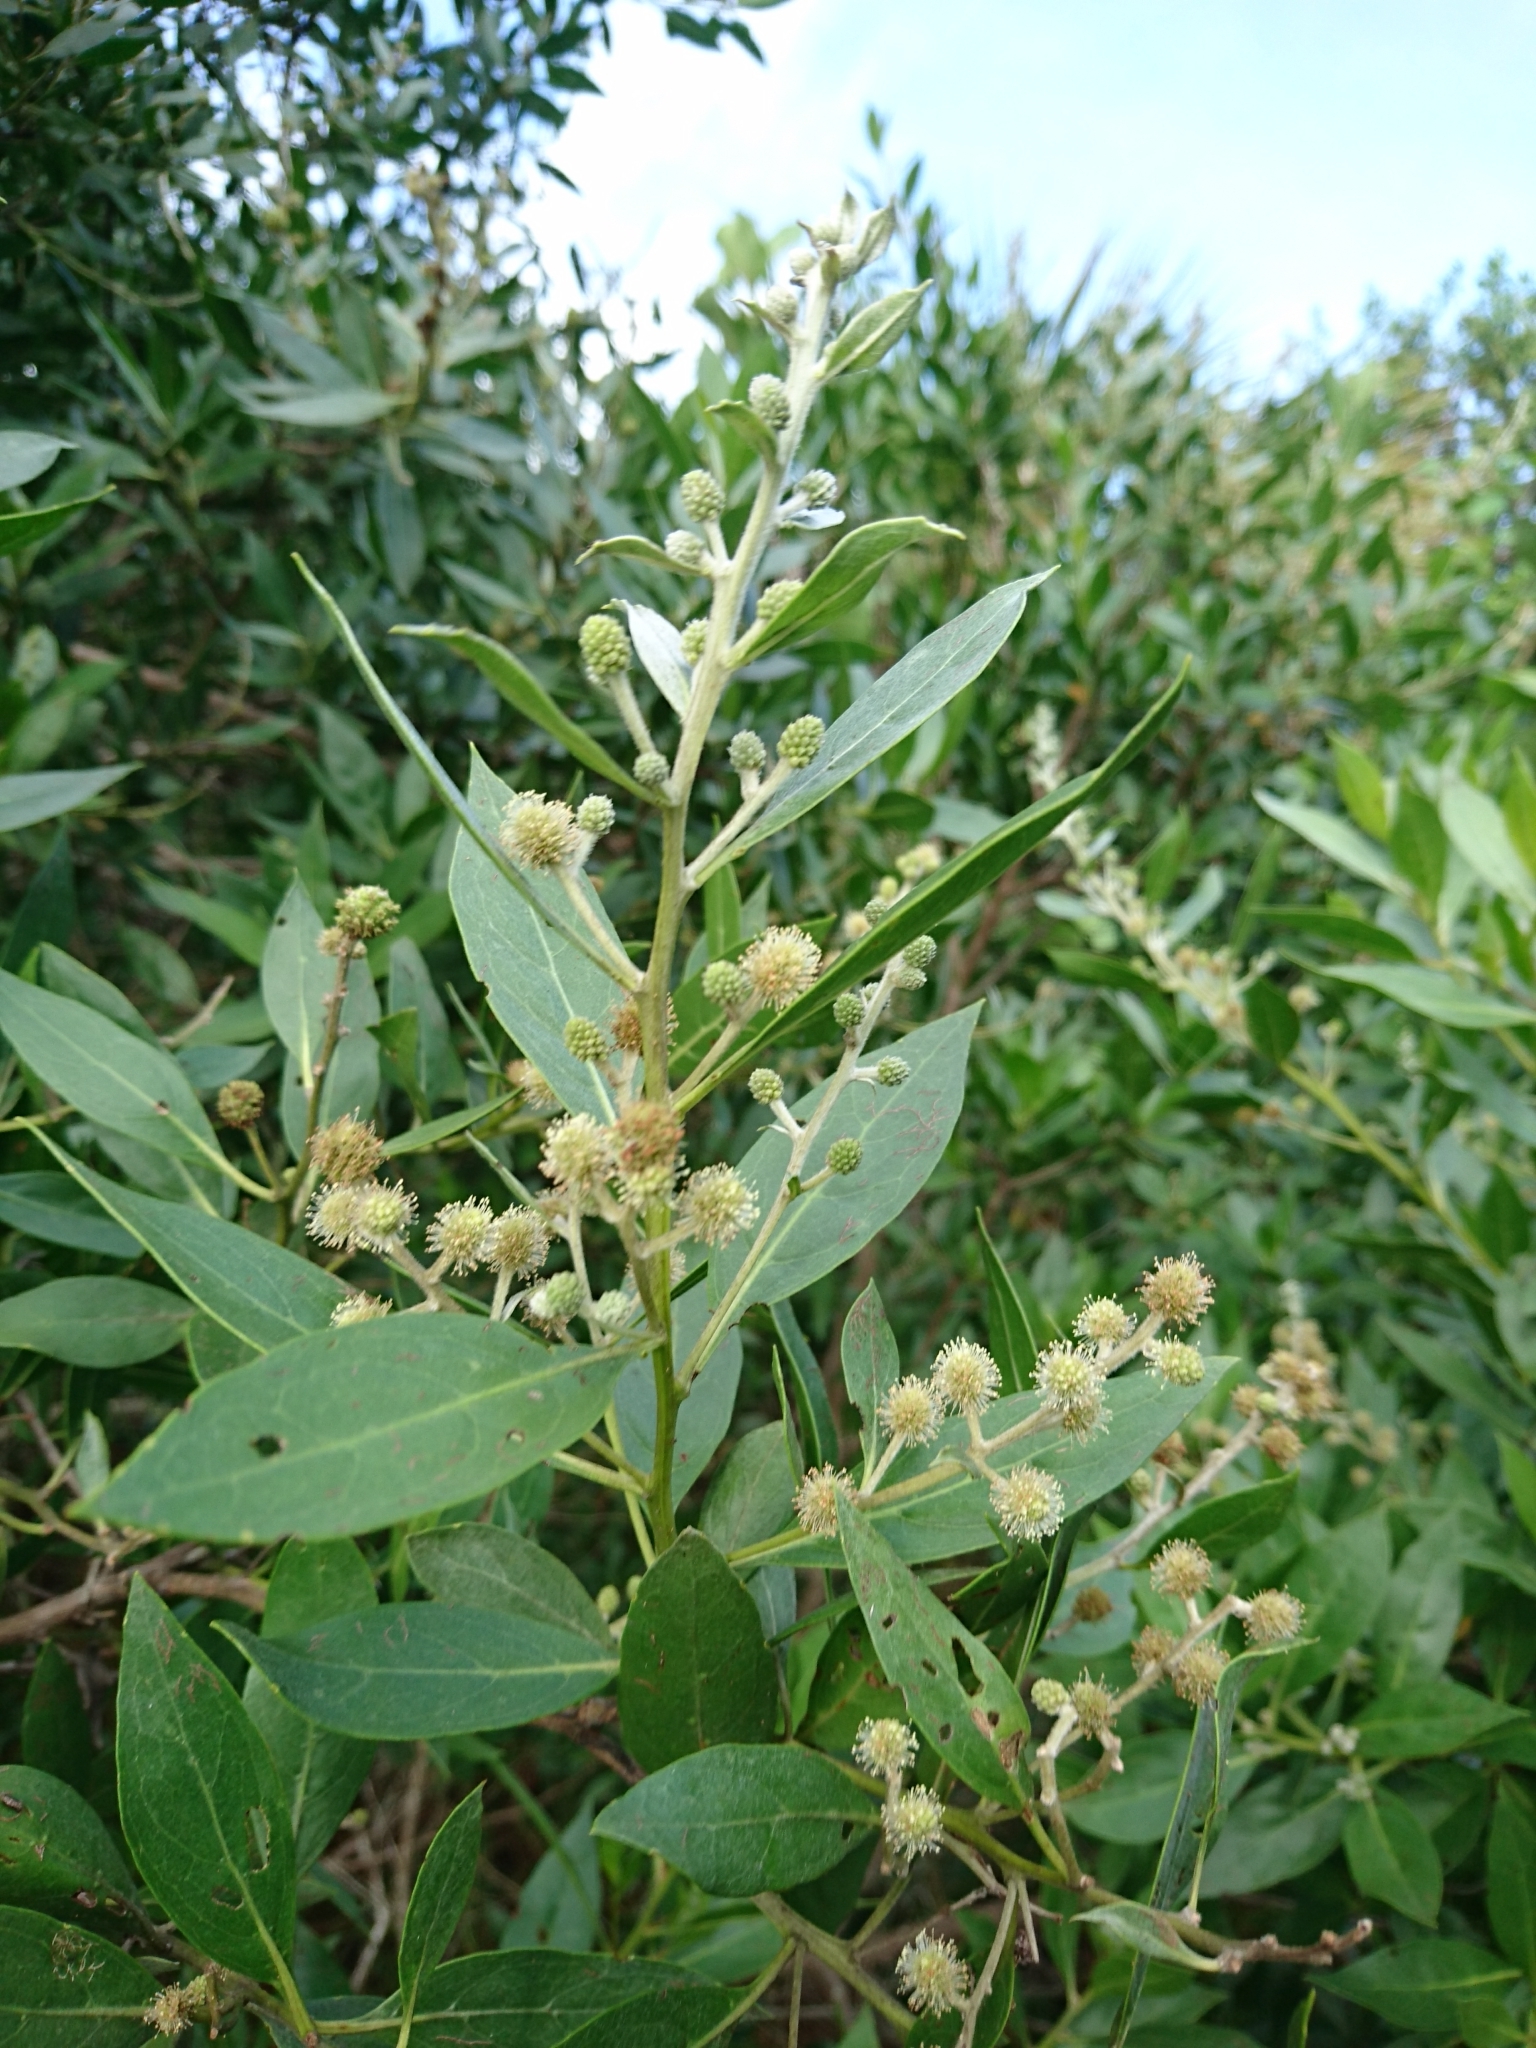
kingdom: Plantae
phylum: Tracheophyta
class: Magnoliopsida
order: Myrtales
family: Combretaceae
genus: Conocarpus
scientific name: Conocarpus erectus
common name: Button mangrove
